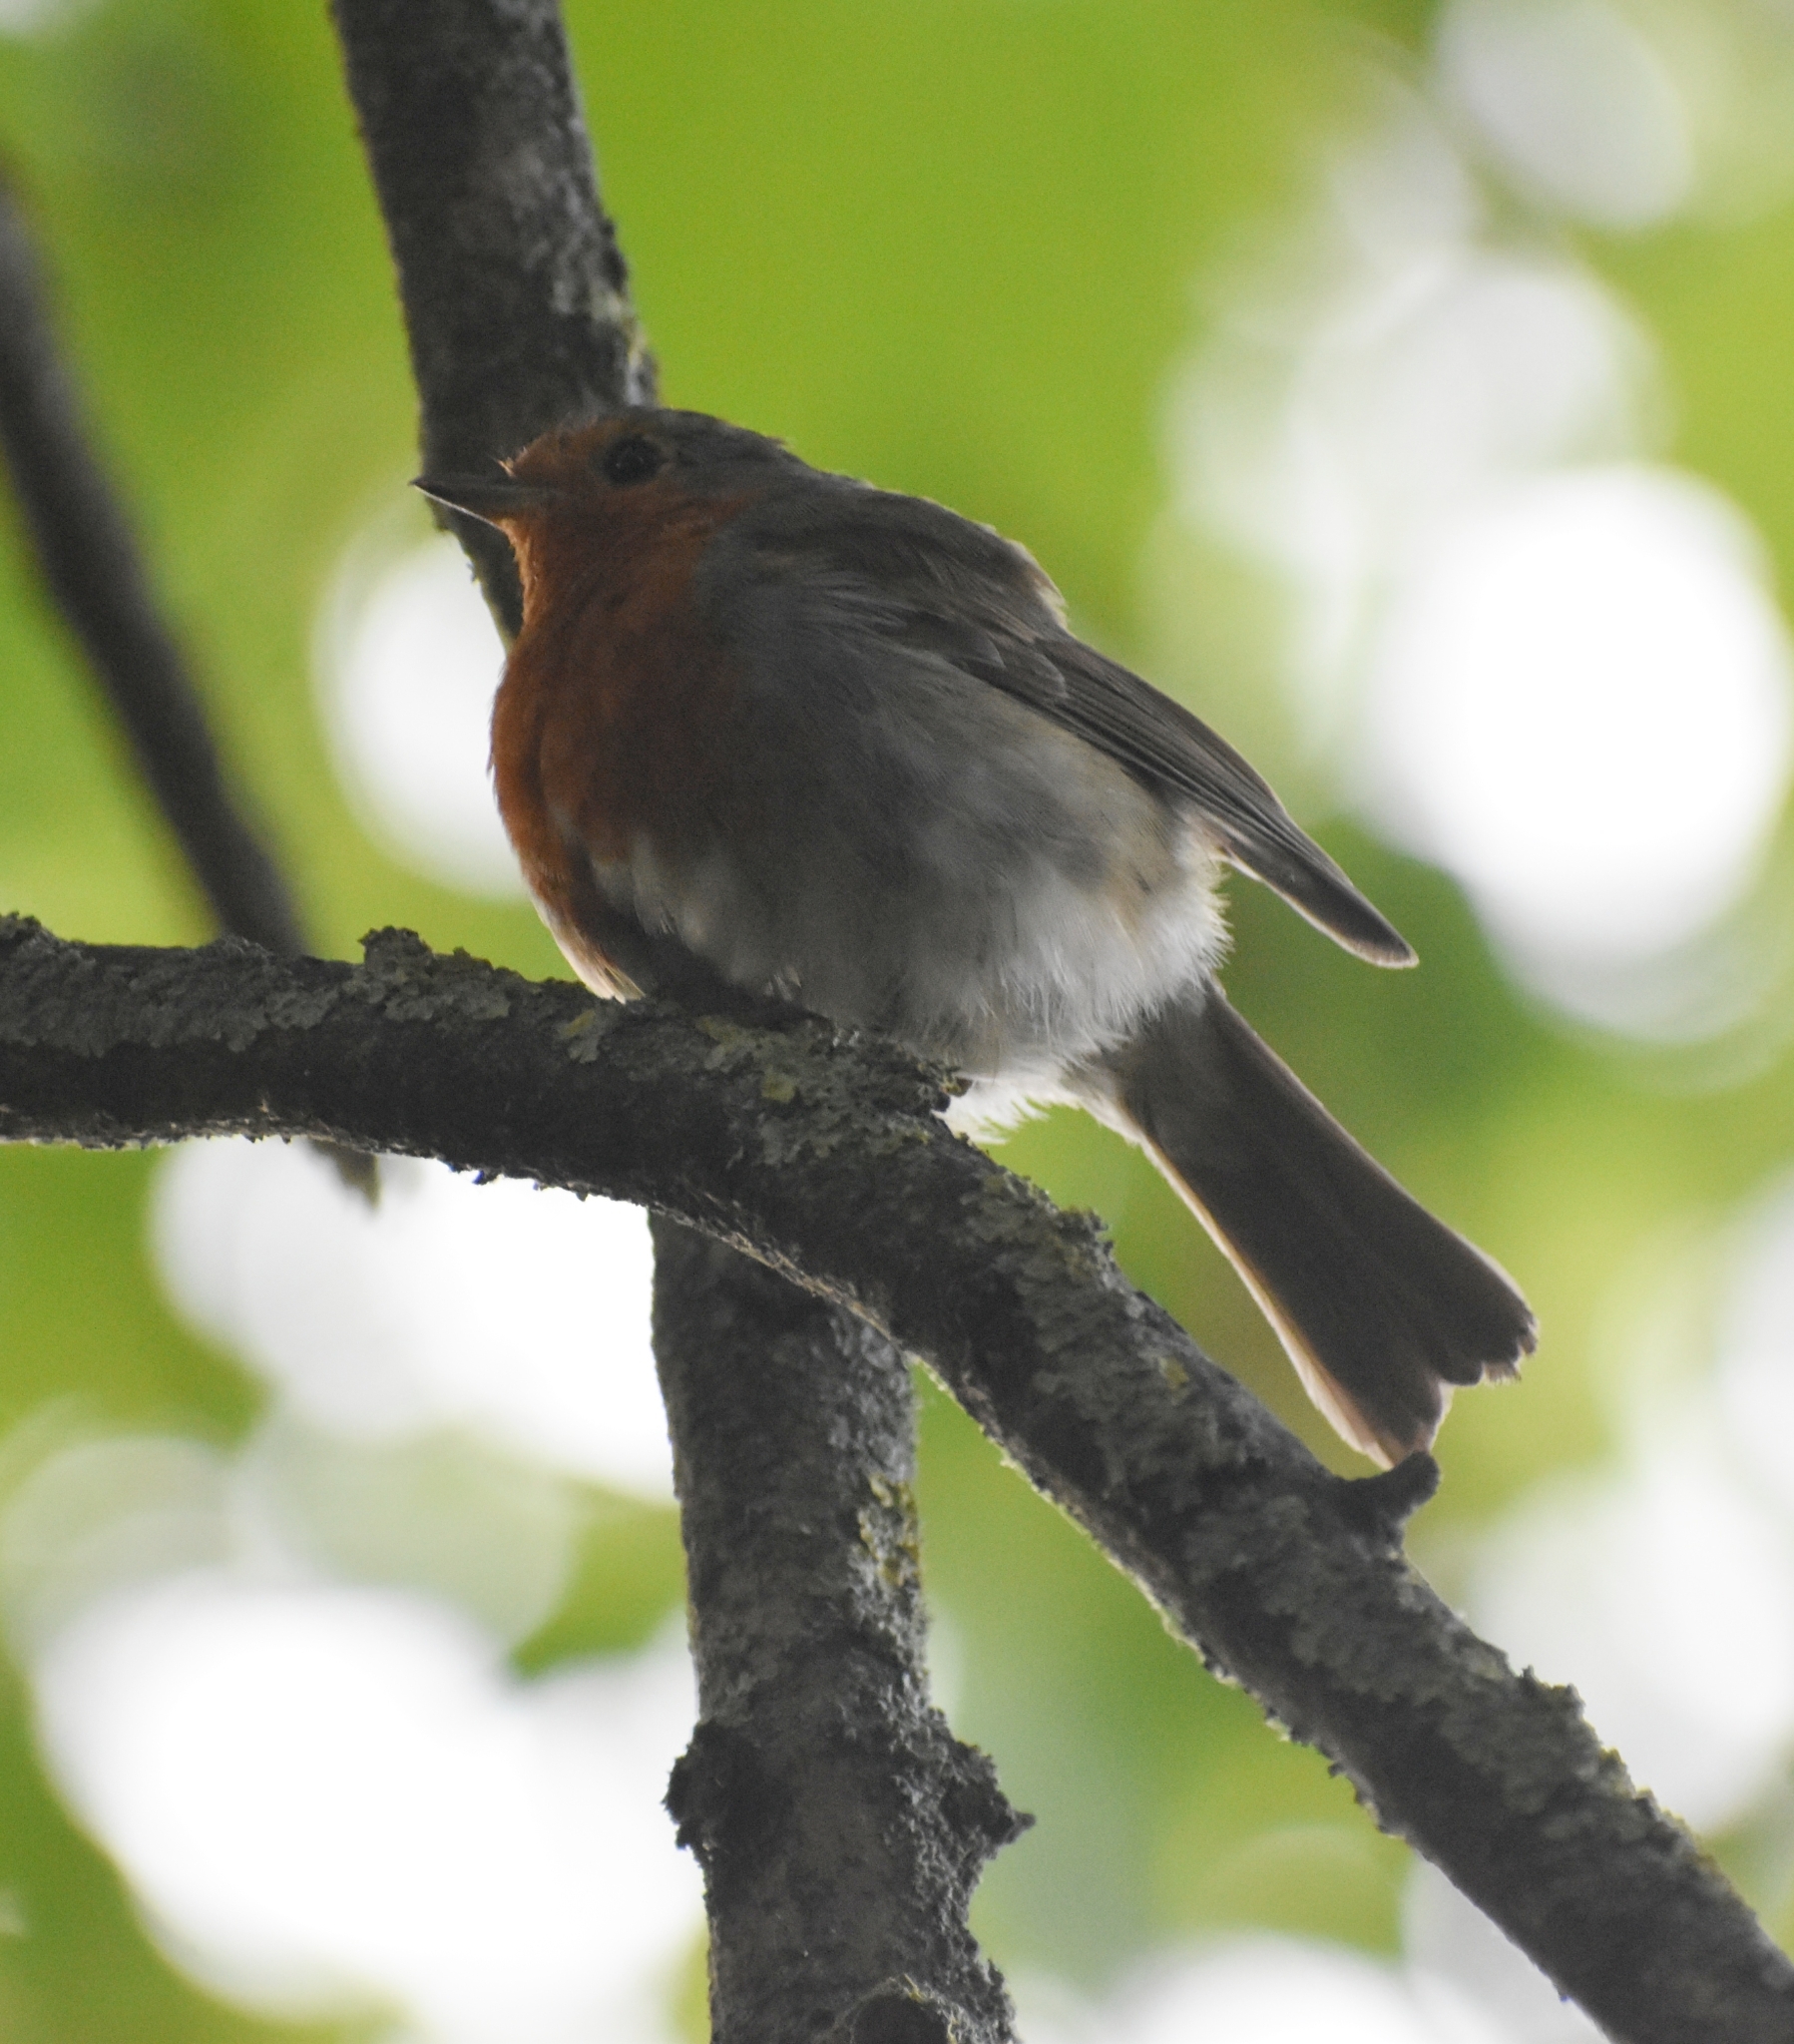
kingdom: Animalia
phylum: Chordata
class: Aves
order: Passeriformes
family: Muscicapidae
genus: Erithacus
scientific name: Erithacus rubecula
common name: European robin
